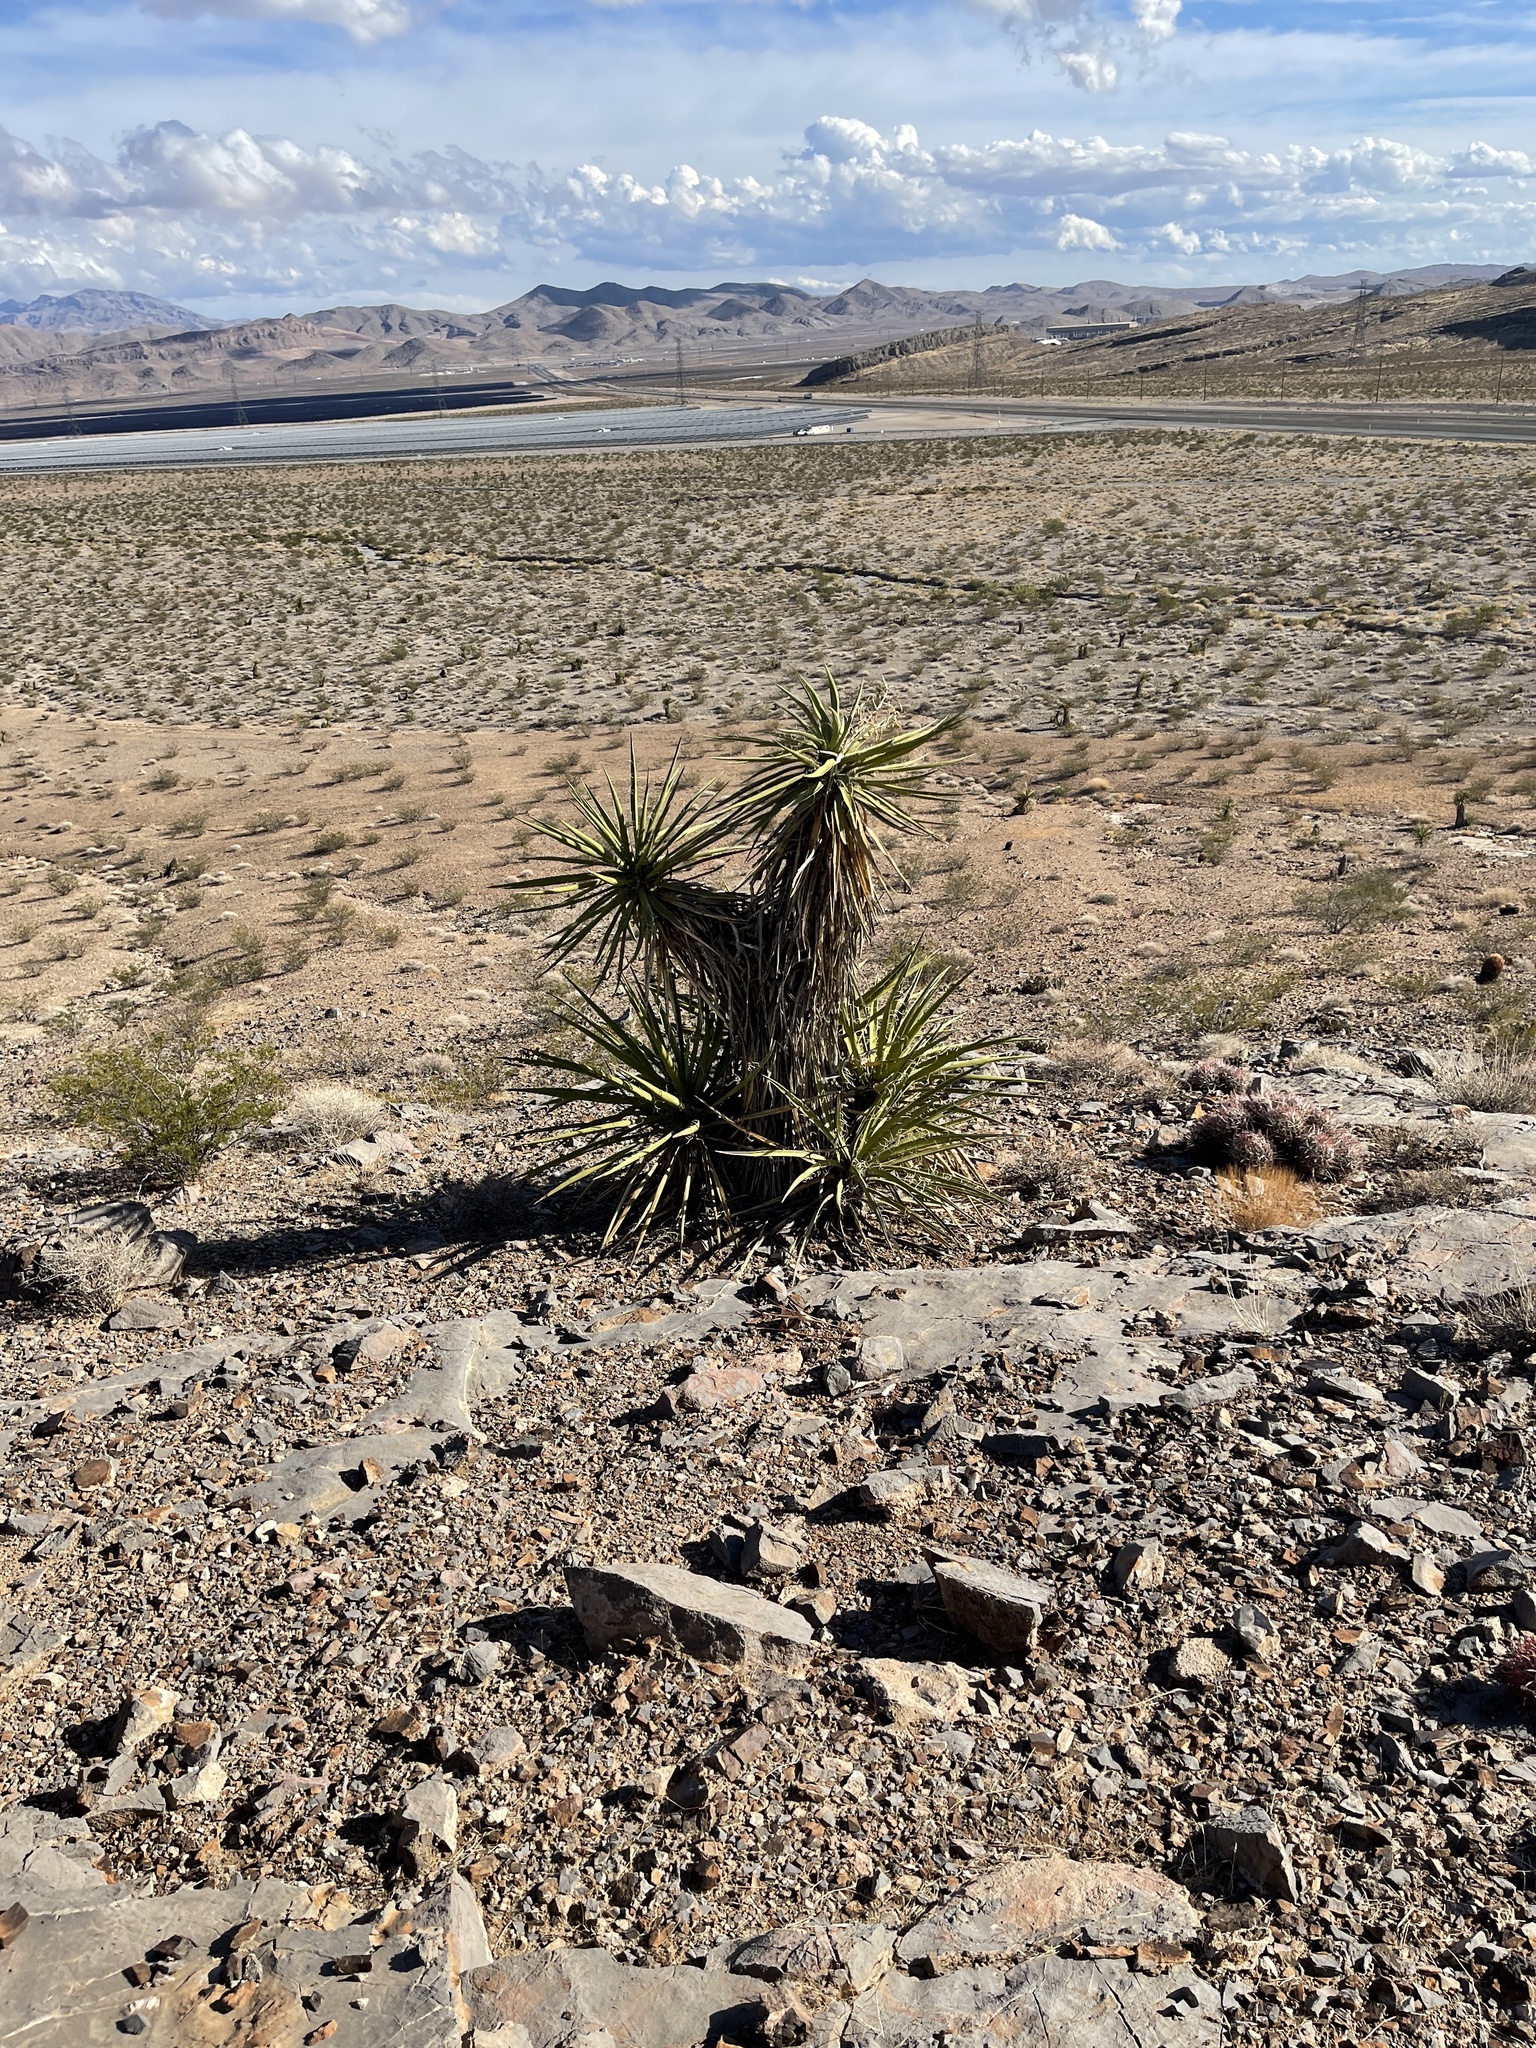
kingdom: Plantae
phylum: Tracheophyta
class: Liliopsida
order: Asparagales
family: Asparagaceae
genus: Yucca
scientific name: Yucca schidigera
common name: Mojave yucca
